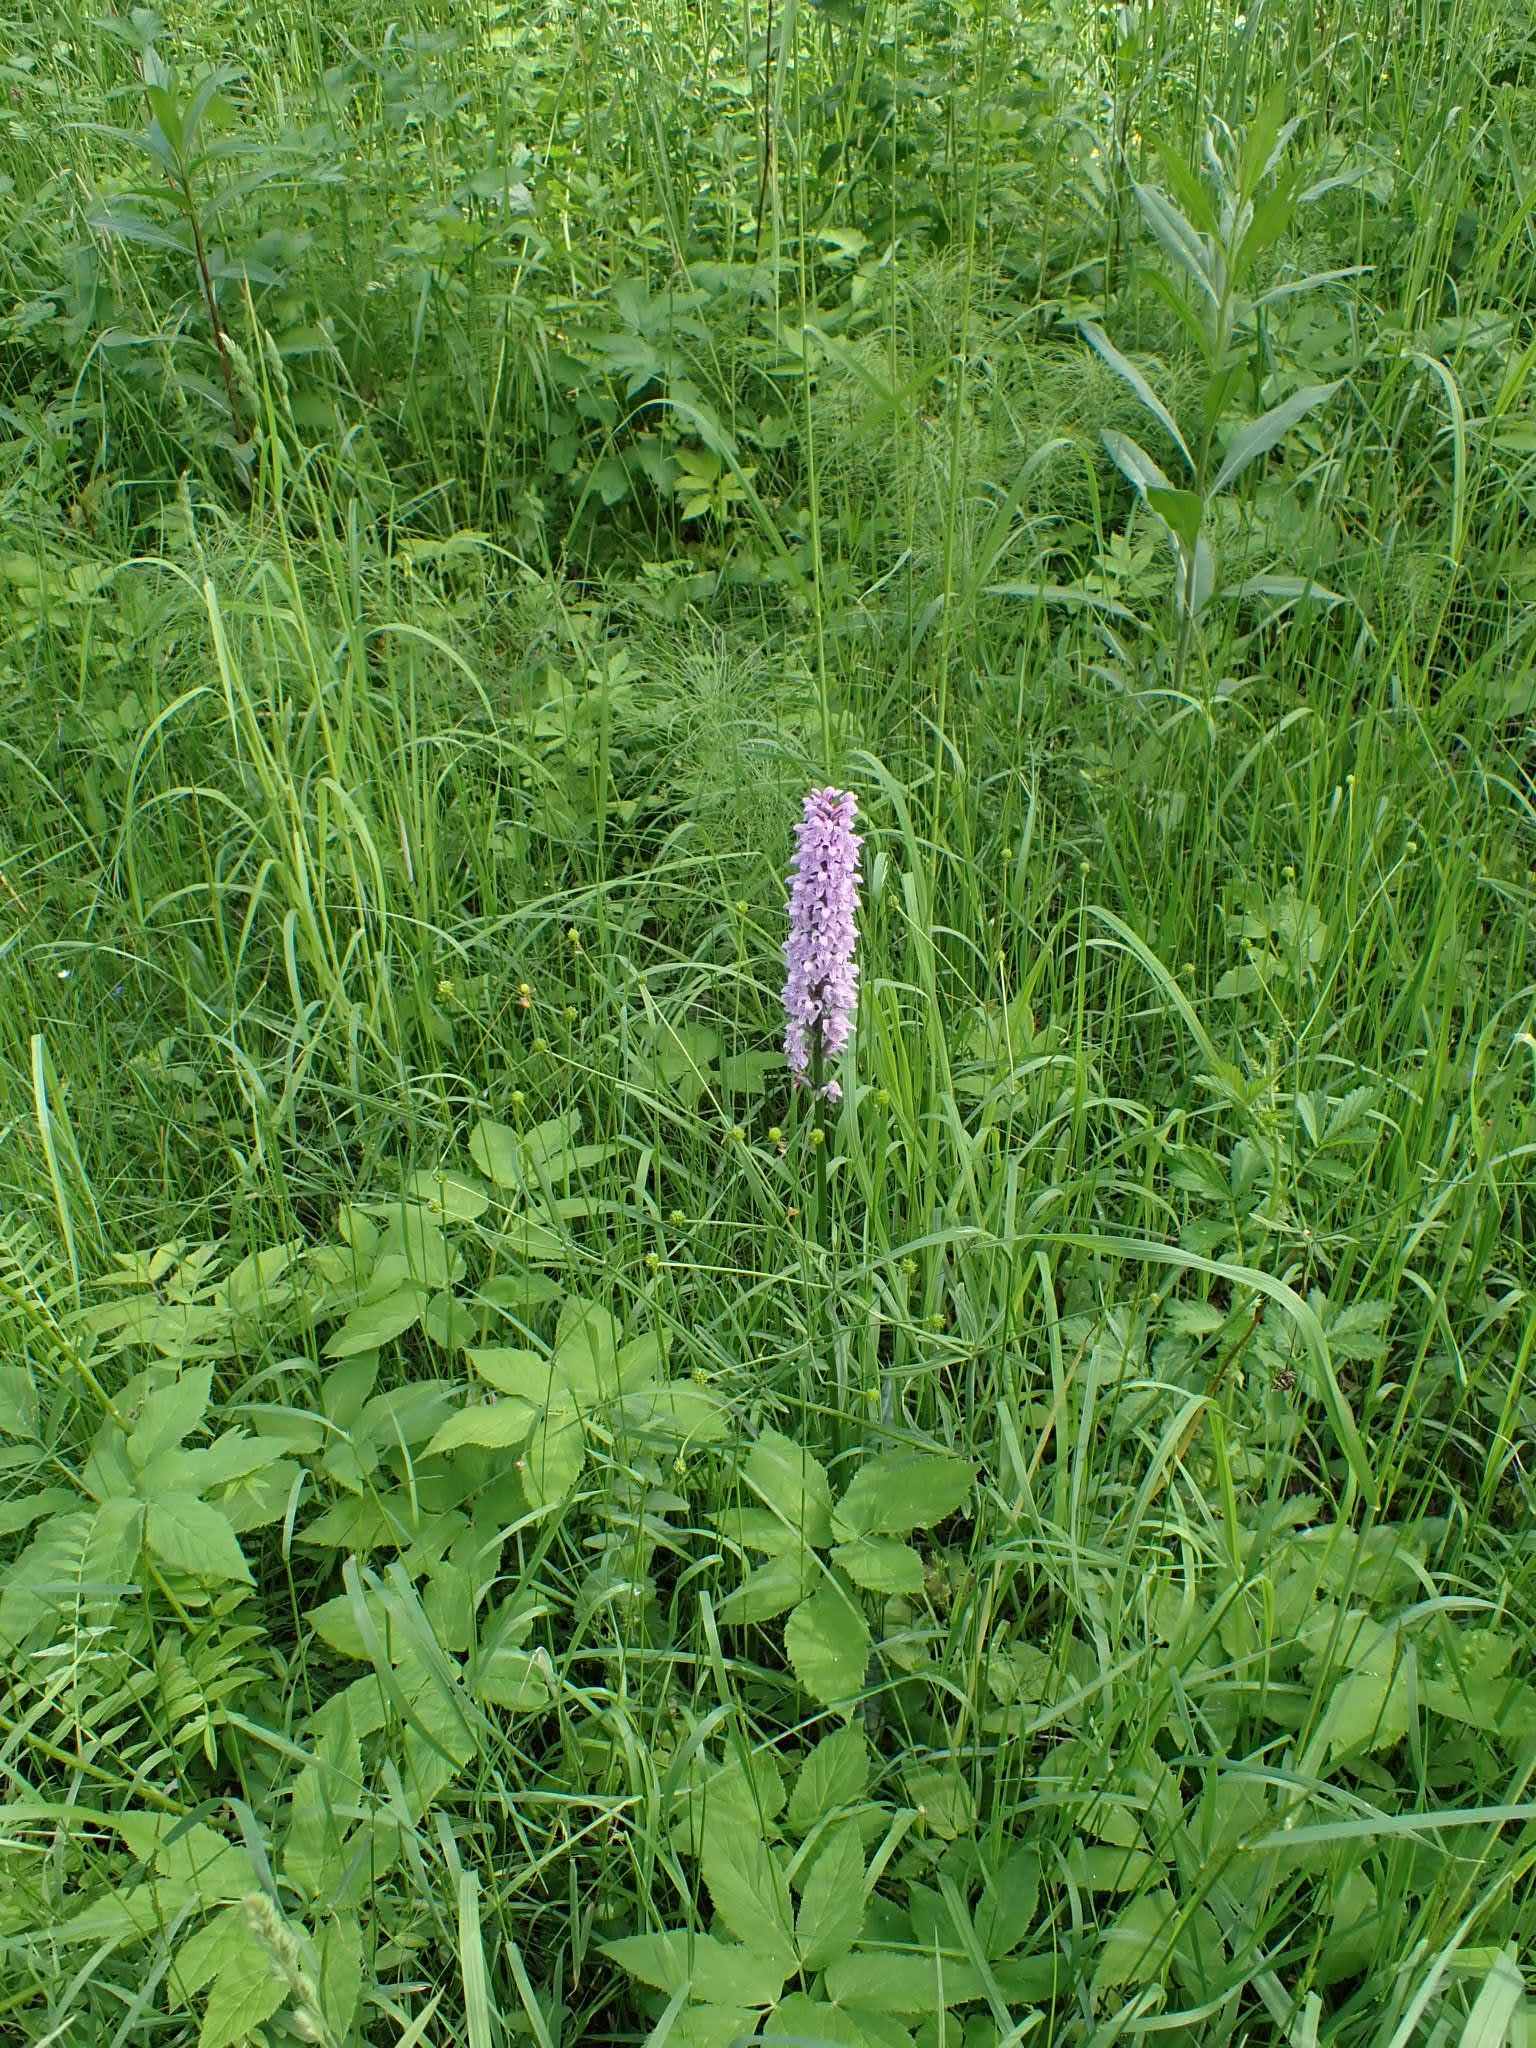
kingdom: Plantae
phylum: Tracheophyta
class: Liliopsida
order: Asparagales
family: Orchidaceae
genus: Dactylorhiza
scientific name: Dactylorhiza maculata
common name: Heath spotted-orchid
